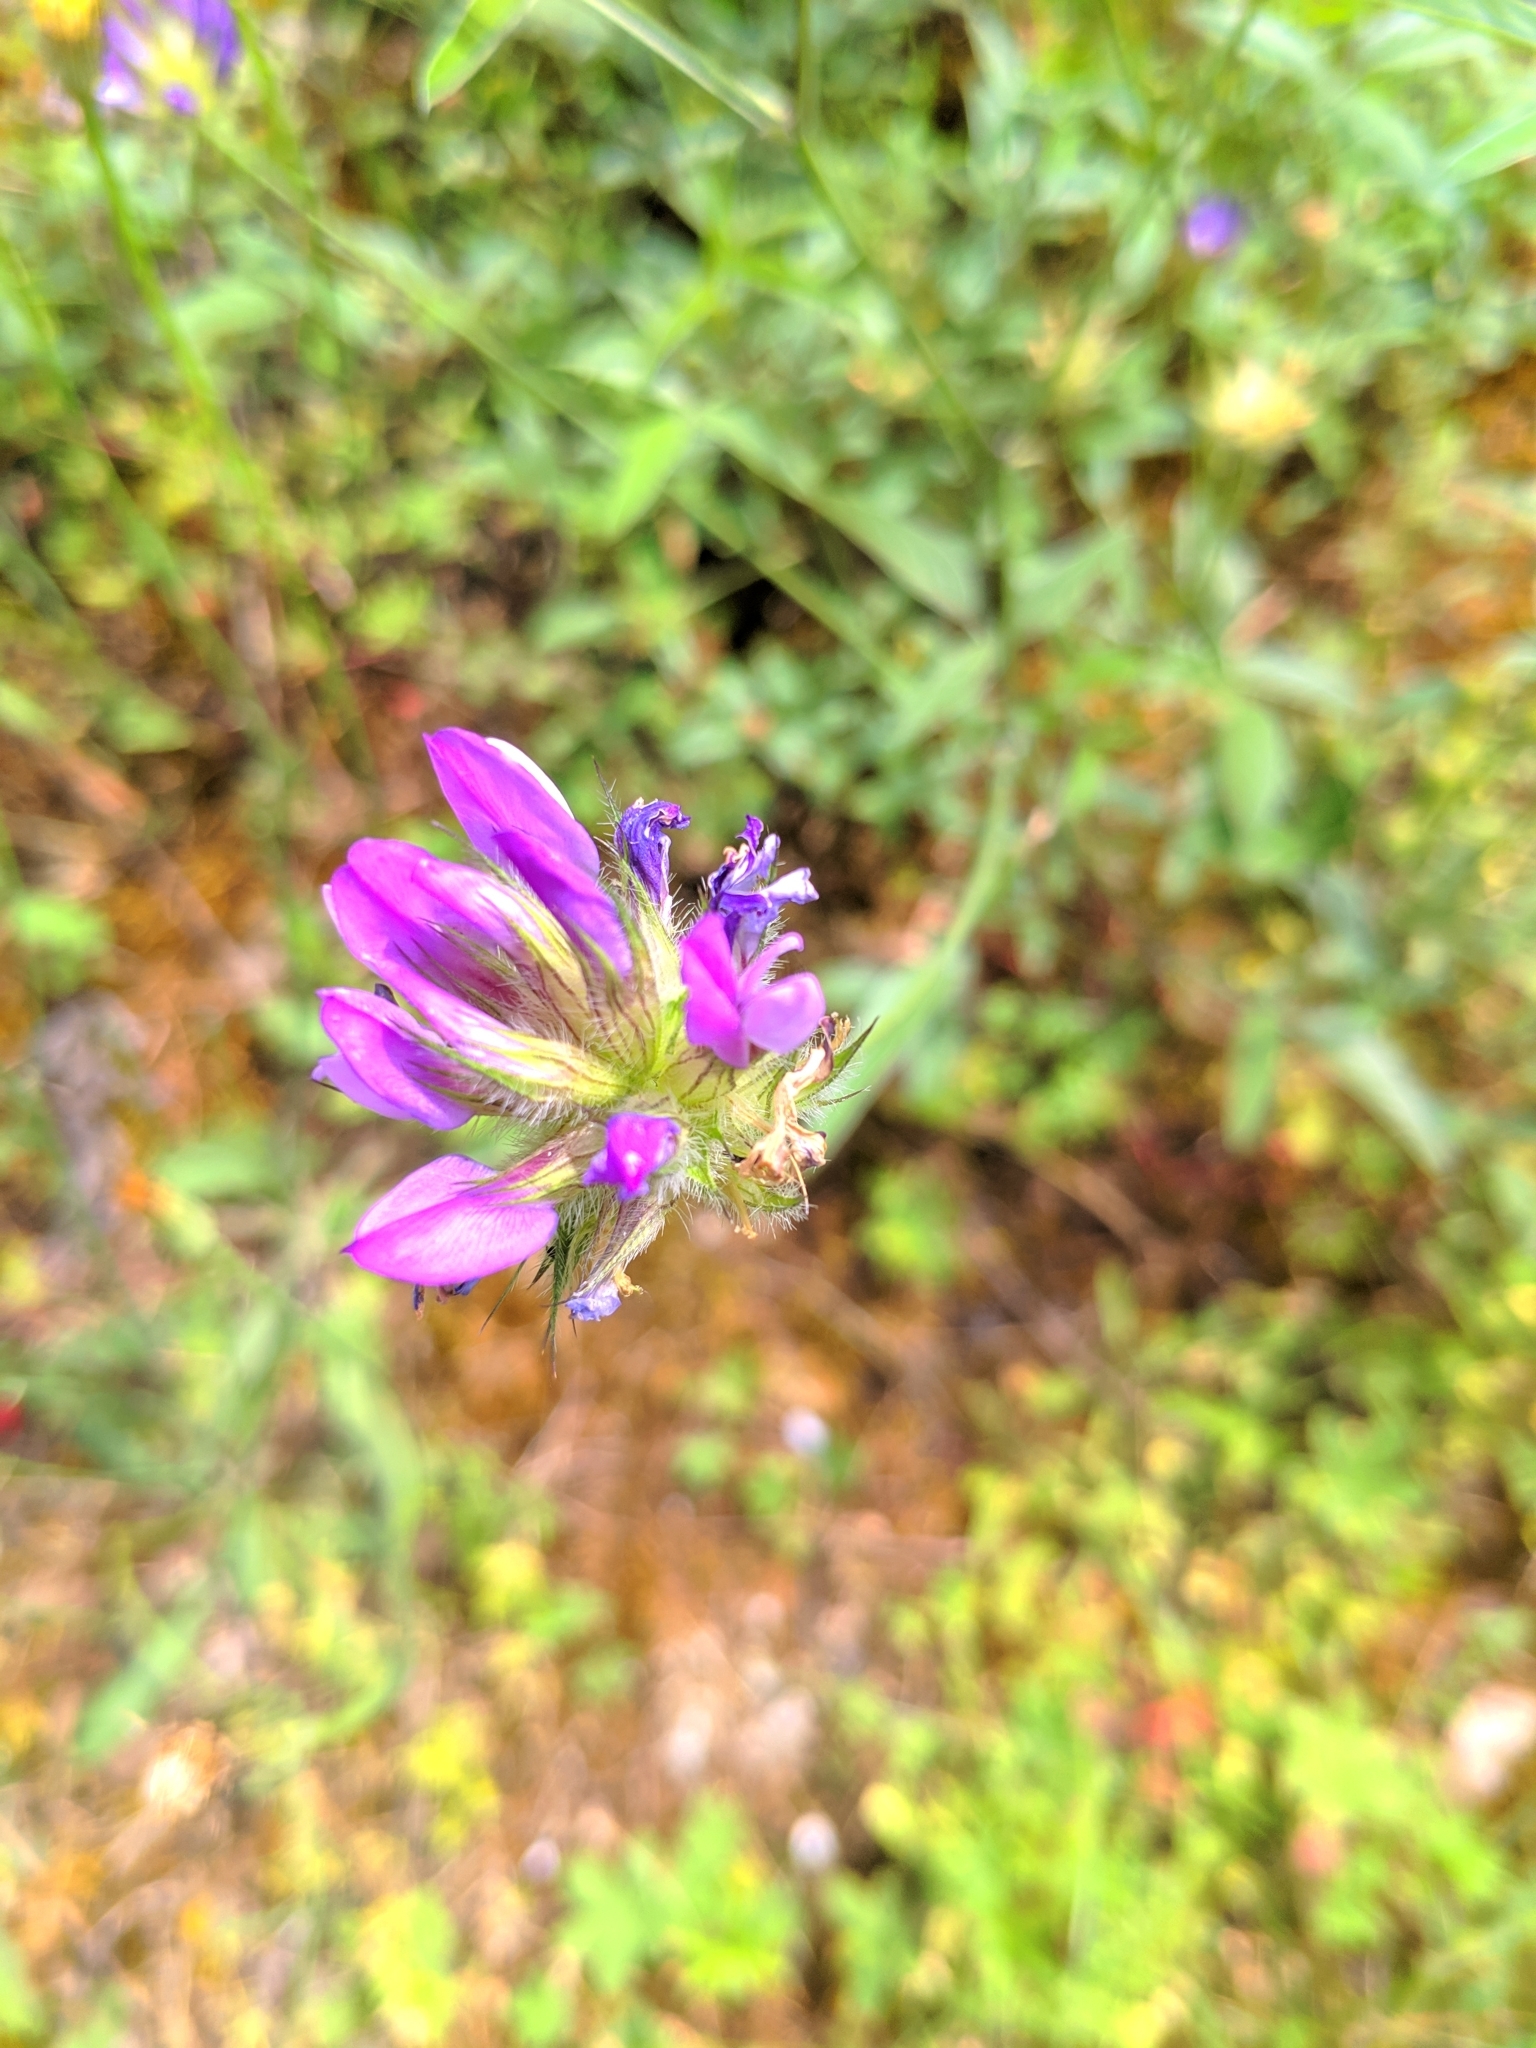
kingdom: Plantae
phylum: Tracheophyta
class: Magnoliopsida
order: Fabales
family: Fabaceae
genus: Bituminaria
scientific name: Bituminaria bituminosa
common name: Arabian pea
